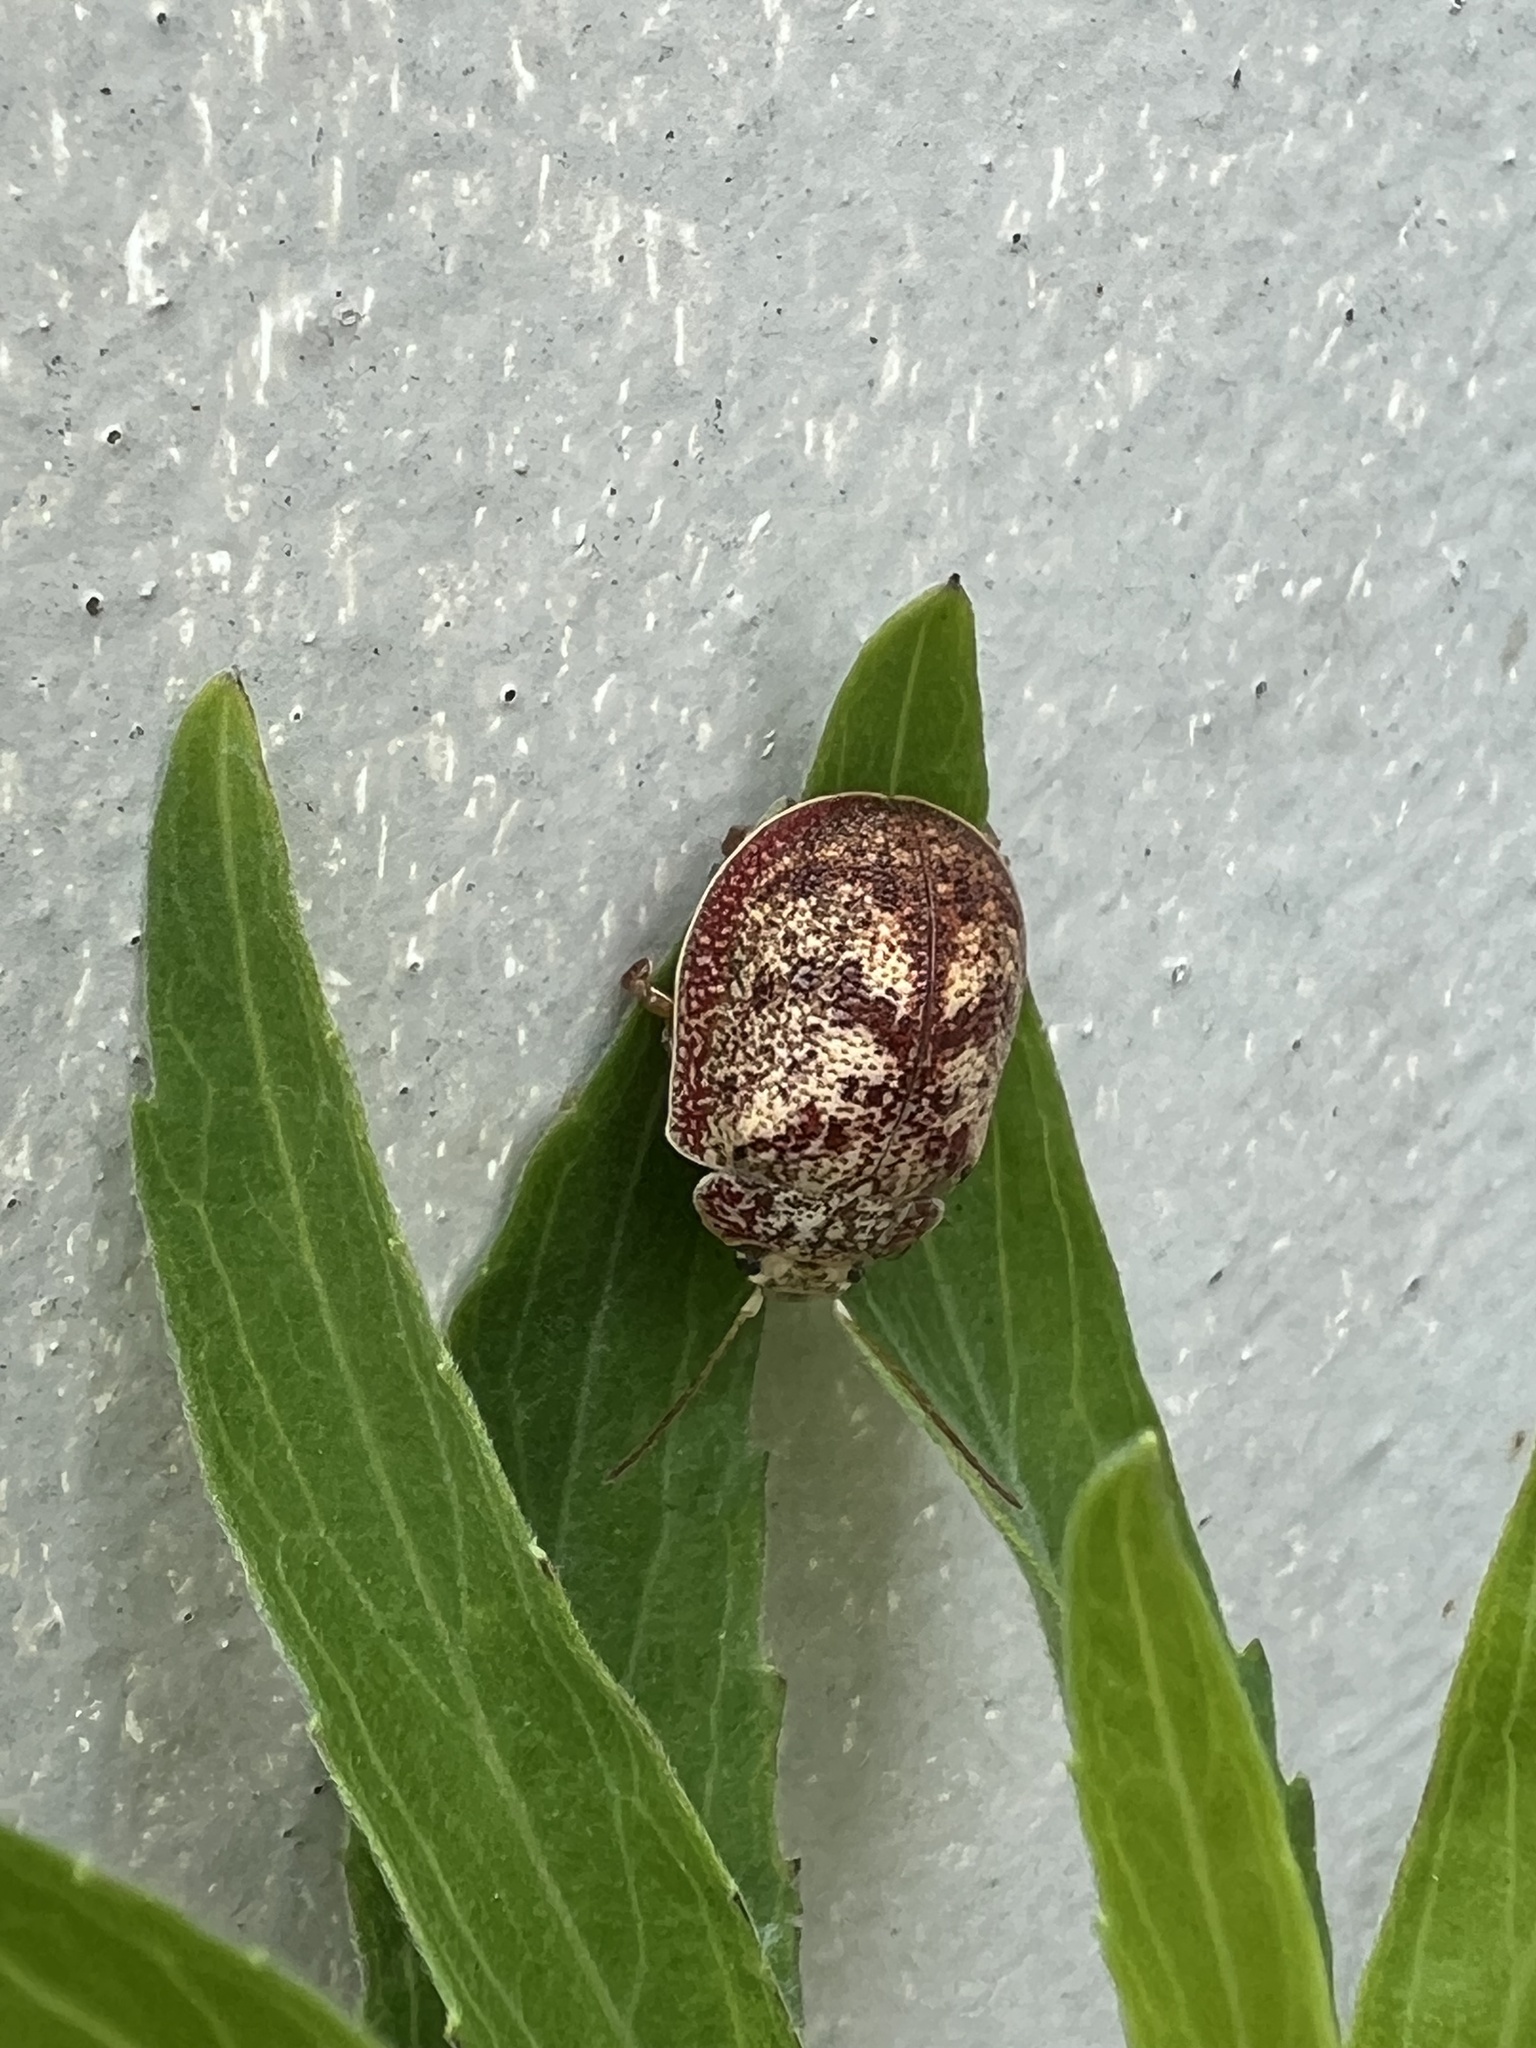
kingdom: Animalia
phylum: Arthropoda
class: Insecta
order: Coleoptera
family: Chrysomelidae
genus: Paropsis
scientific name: Paropsis charybdis
